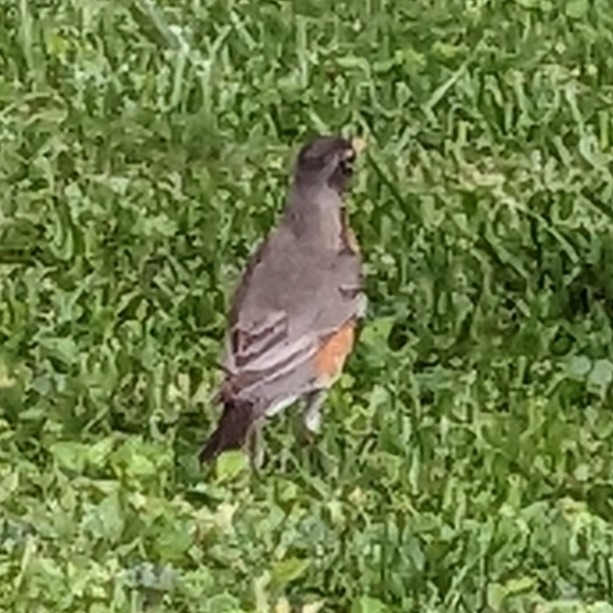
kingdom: Animalia
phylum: Chordata
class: Aves
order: Passeriformes
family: Turdidae
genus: Turdus
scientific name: Turdus migratorius
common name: American robin
